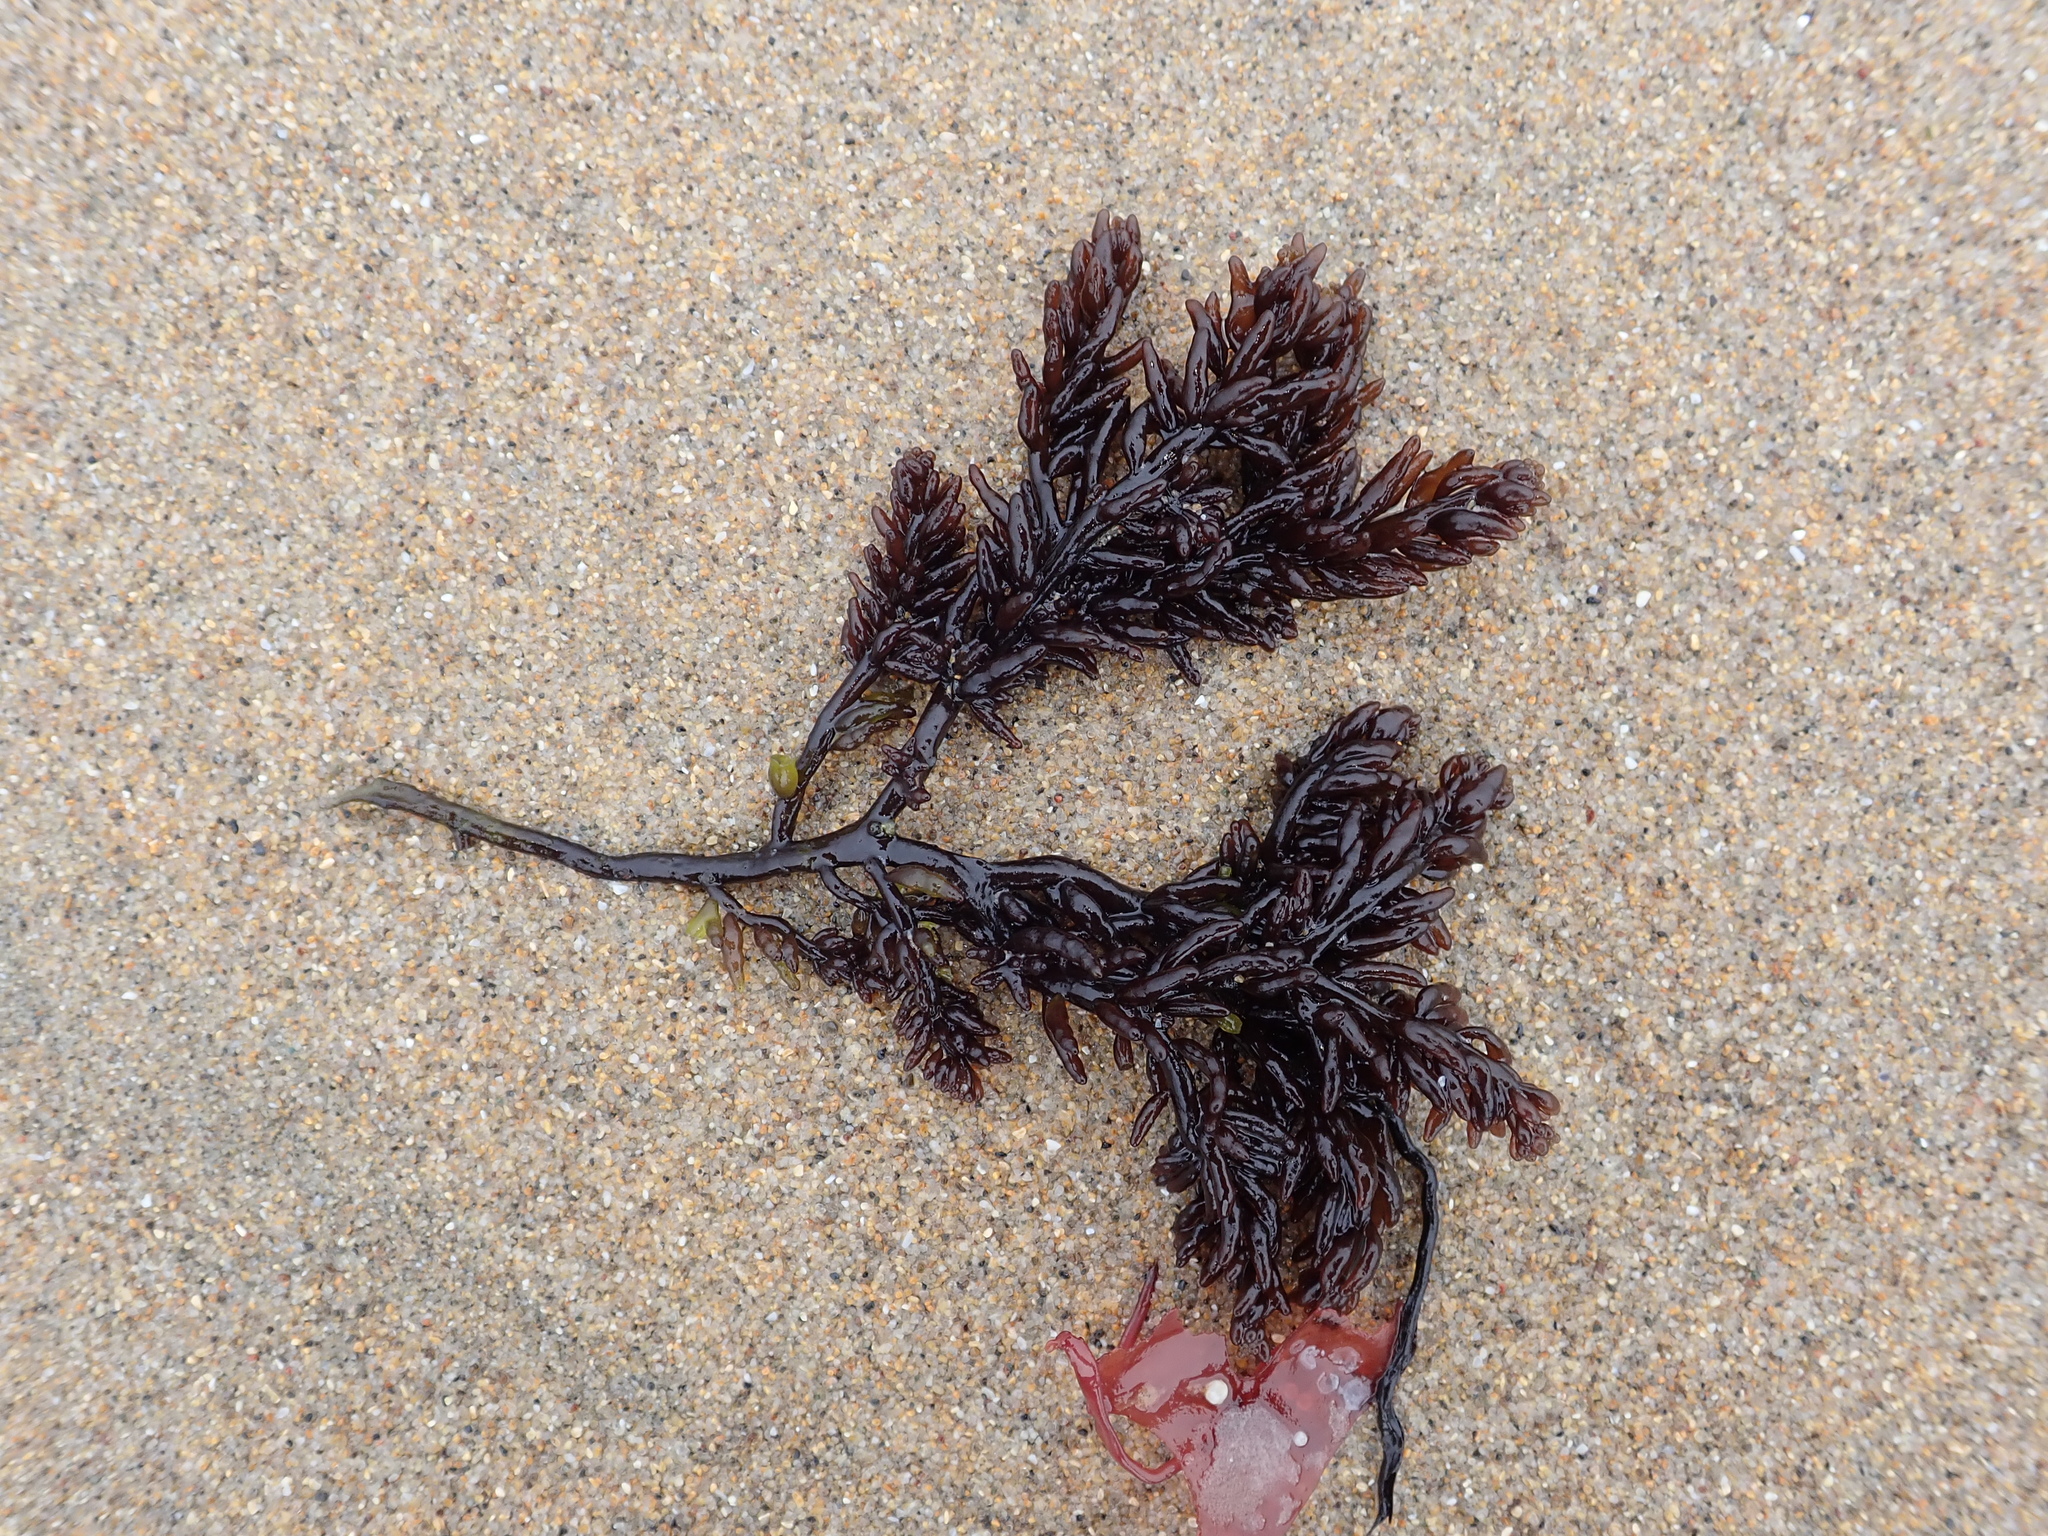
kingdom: Plantae
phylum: Rhodophyta
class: Florideophyceae
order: Rhodymeniales
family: Champiaceae
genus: Neogastroclonium
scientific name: Neogastroclonium subarticulatum
